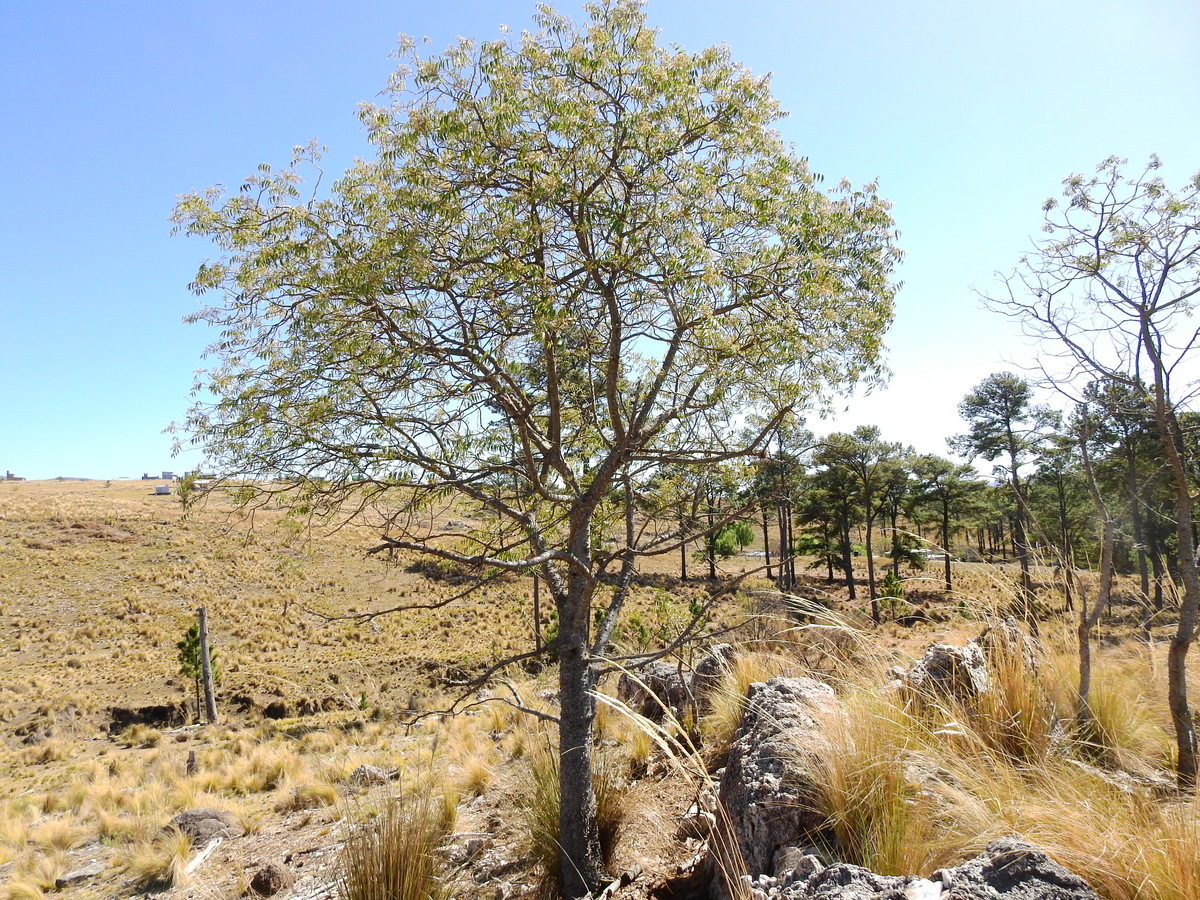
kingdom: Plantae
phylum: Tracheophyta
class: Magnoliopsida
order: Sapindales
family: Rutaceae
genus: Zanthoxylum
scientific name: Zanthoxylum coco
